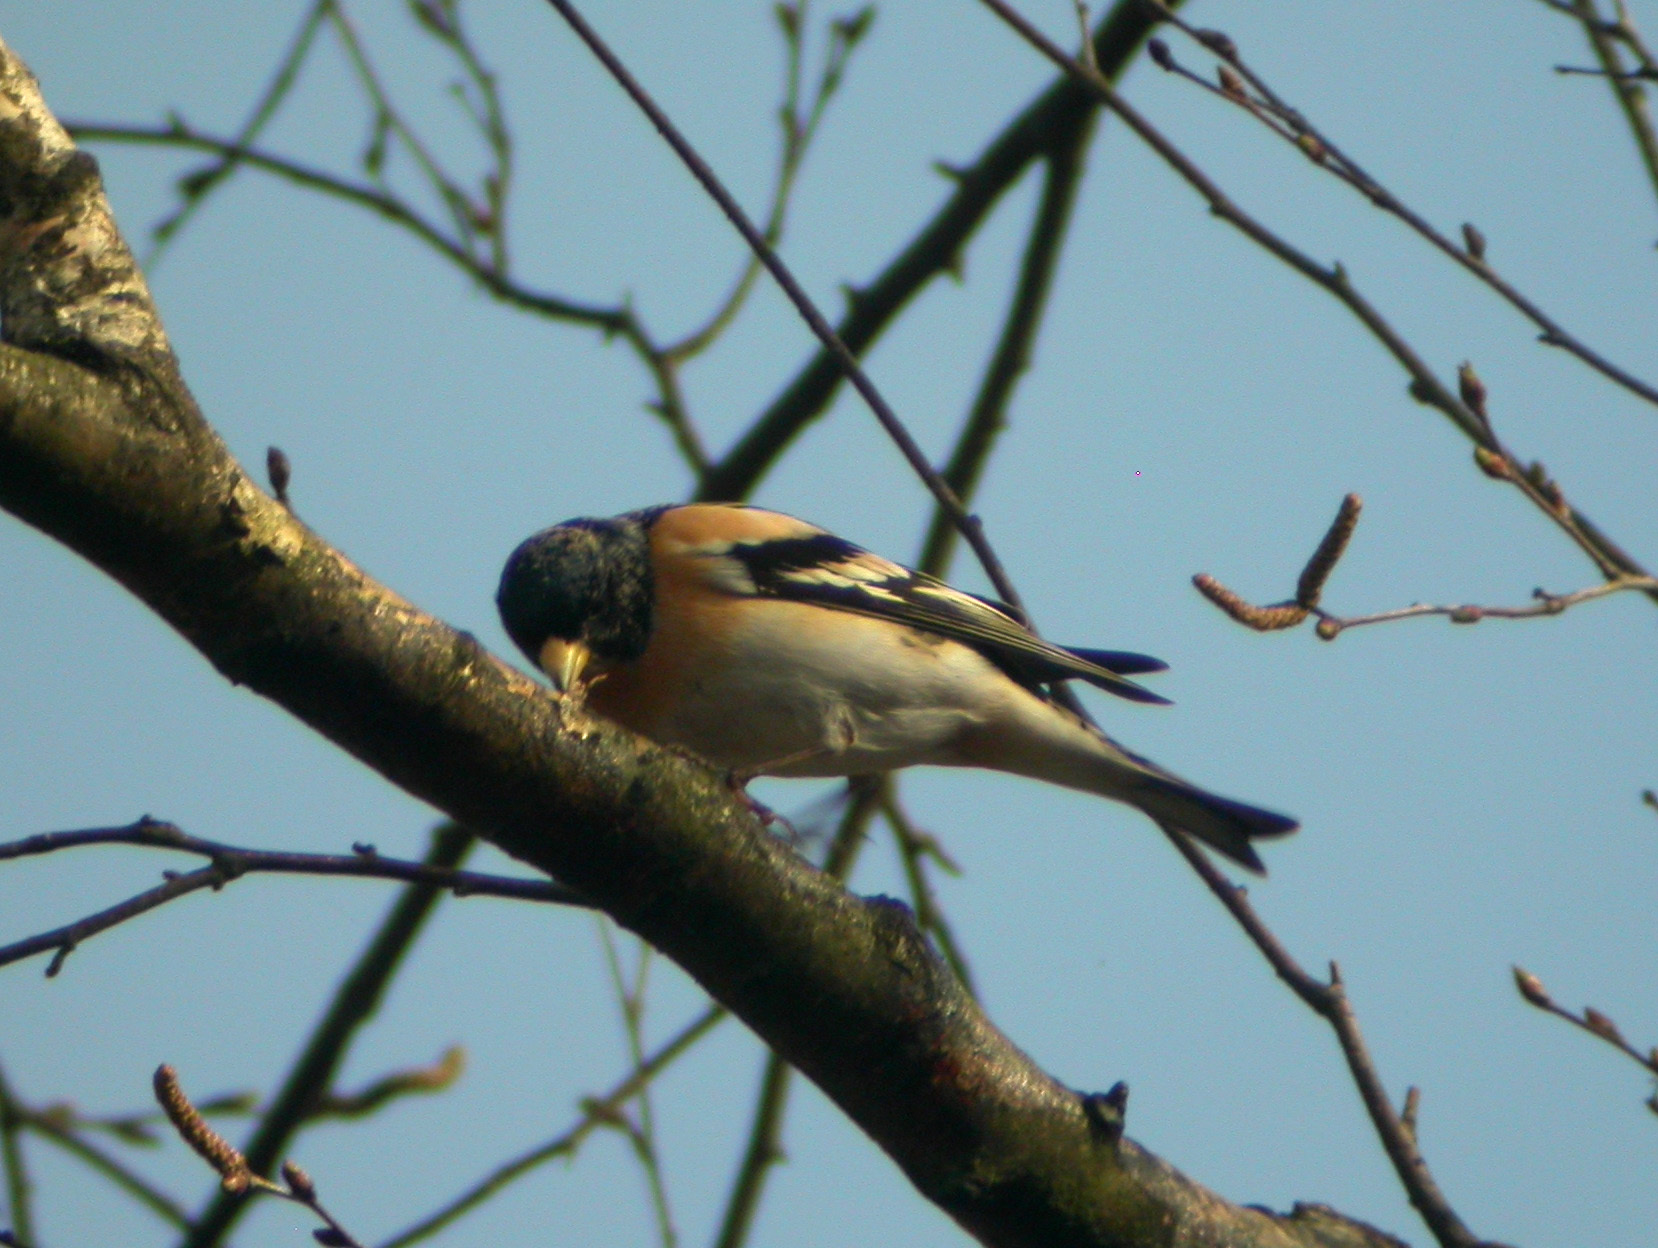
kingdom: Animalia
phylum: Chordata
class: Aves
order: Passeriformes
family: Fringillidae
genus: Fringilla
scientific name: Fringilla montifringilla
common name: Brambling
